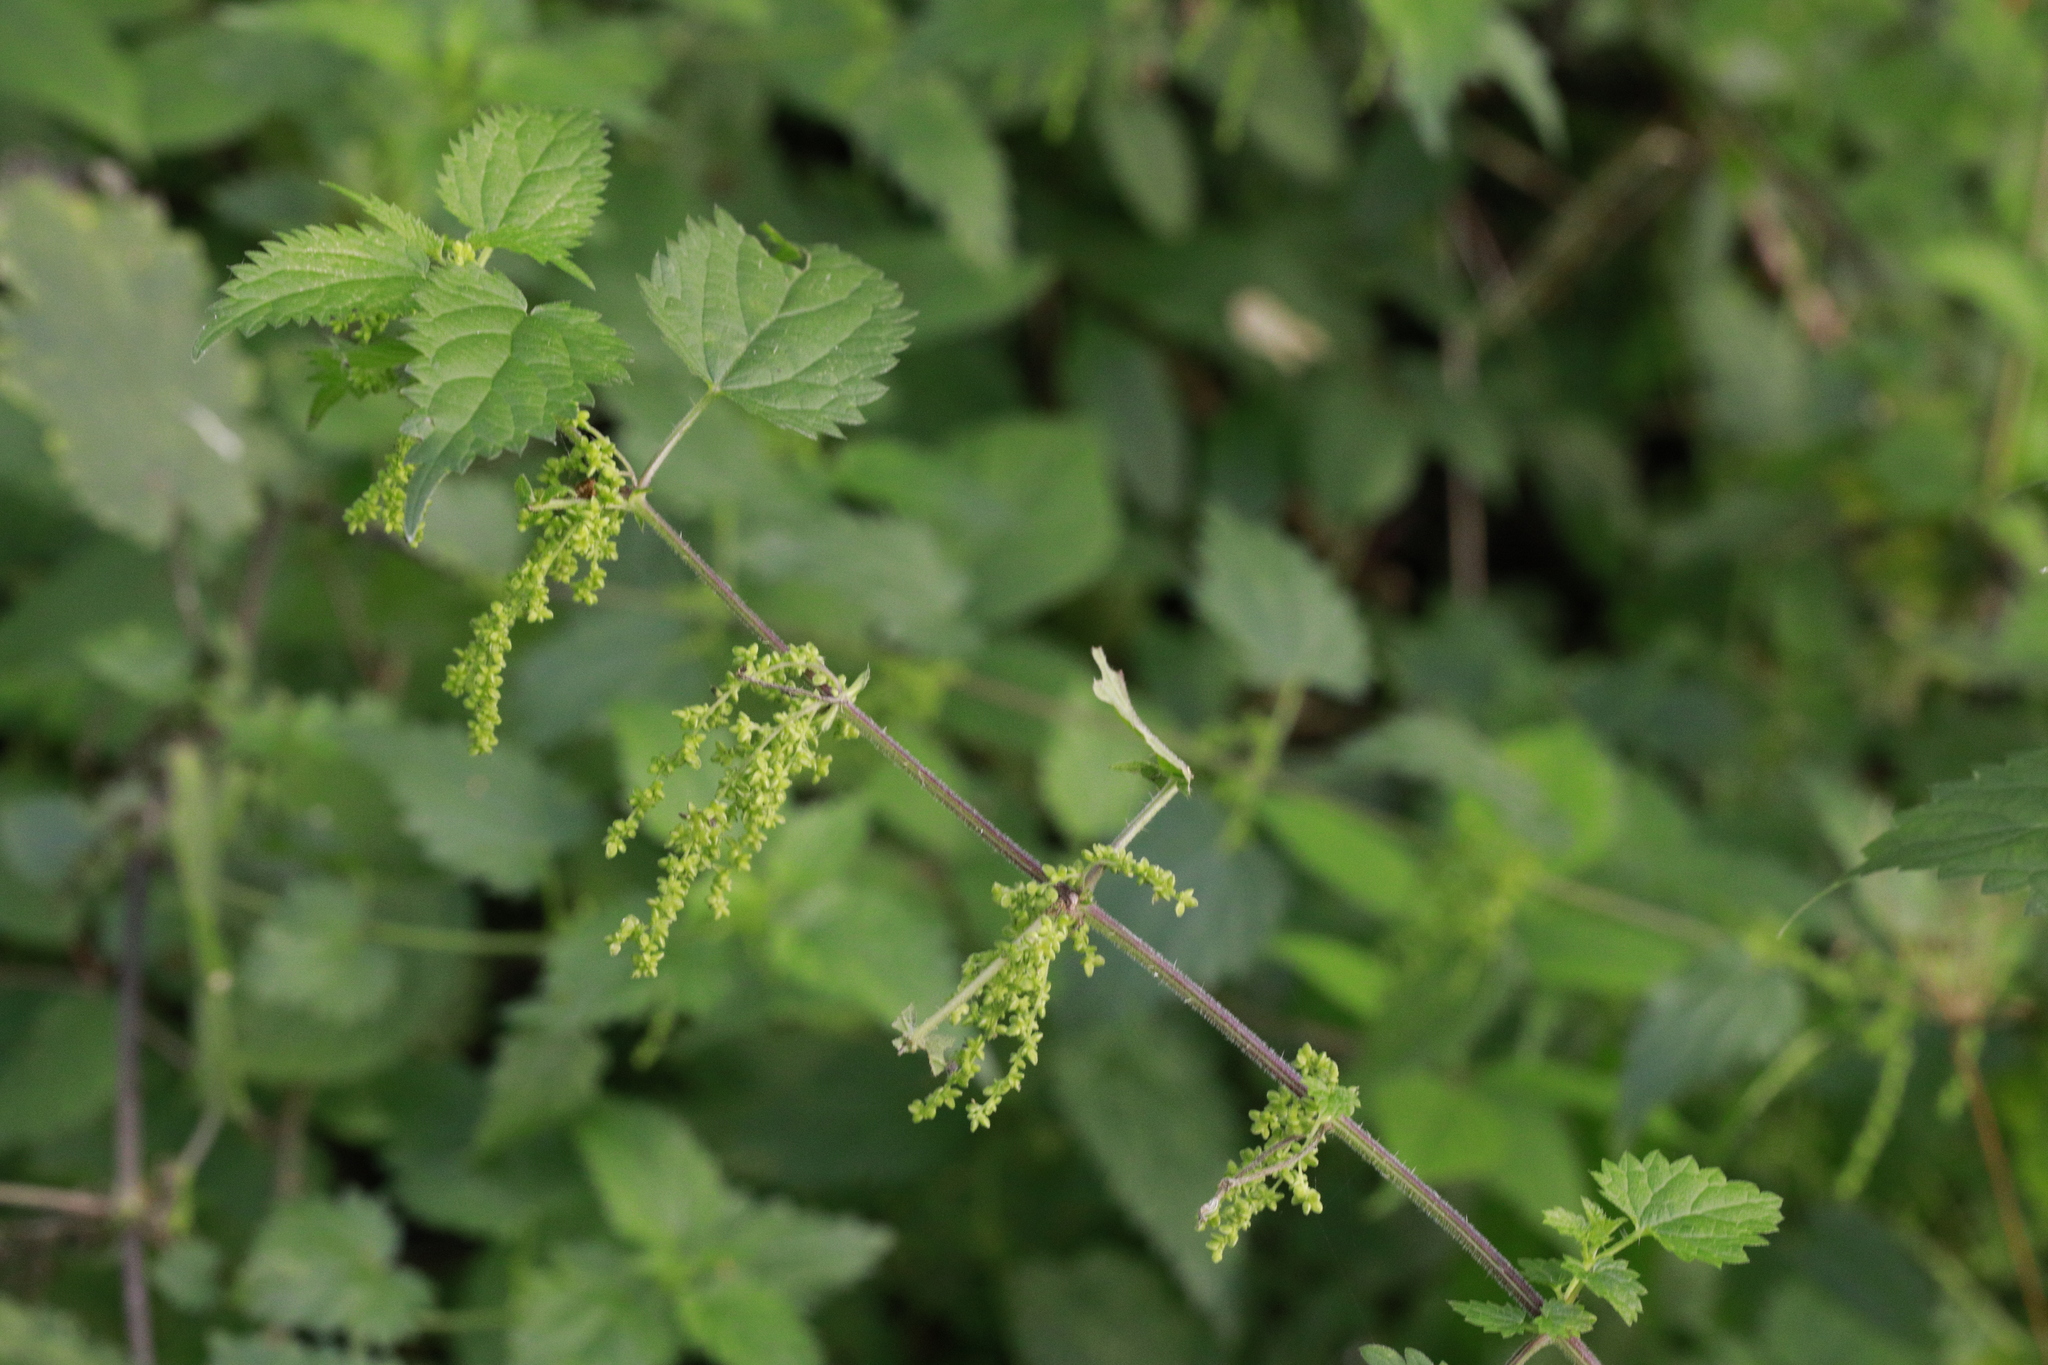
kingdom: Plantae
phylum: Tracheophyta
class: Magnoliopsida
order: Rosales
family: Urticaceae
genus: Urtica
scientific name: Urtica dioica
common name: Common nettle
